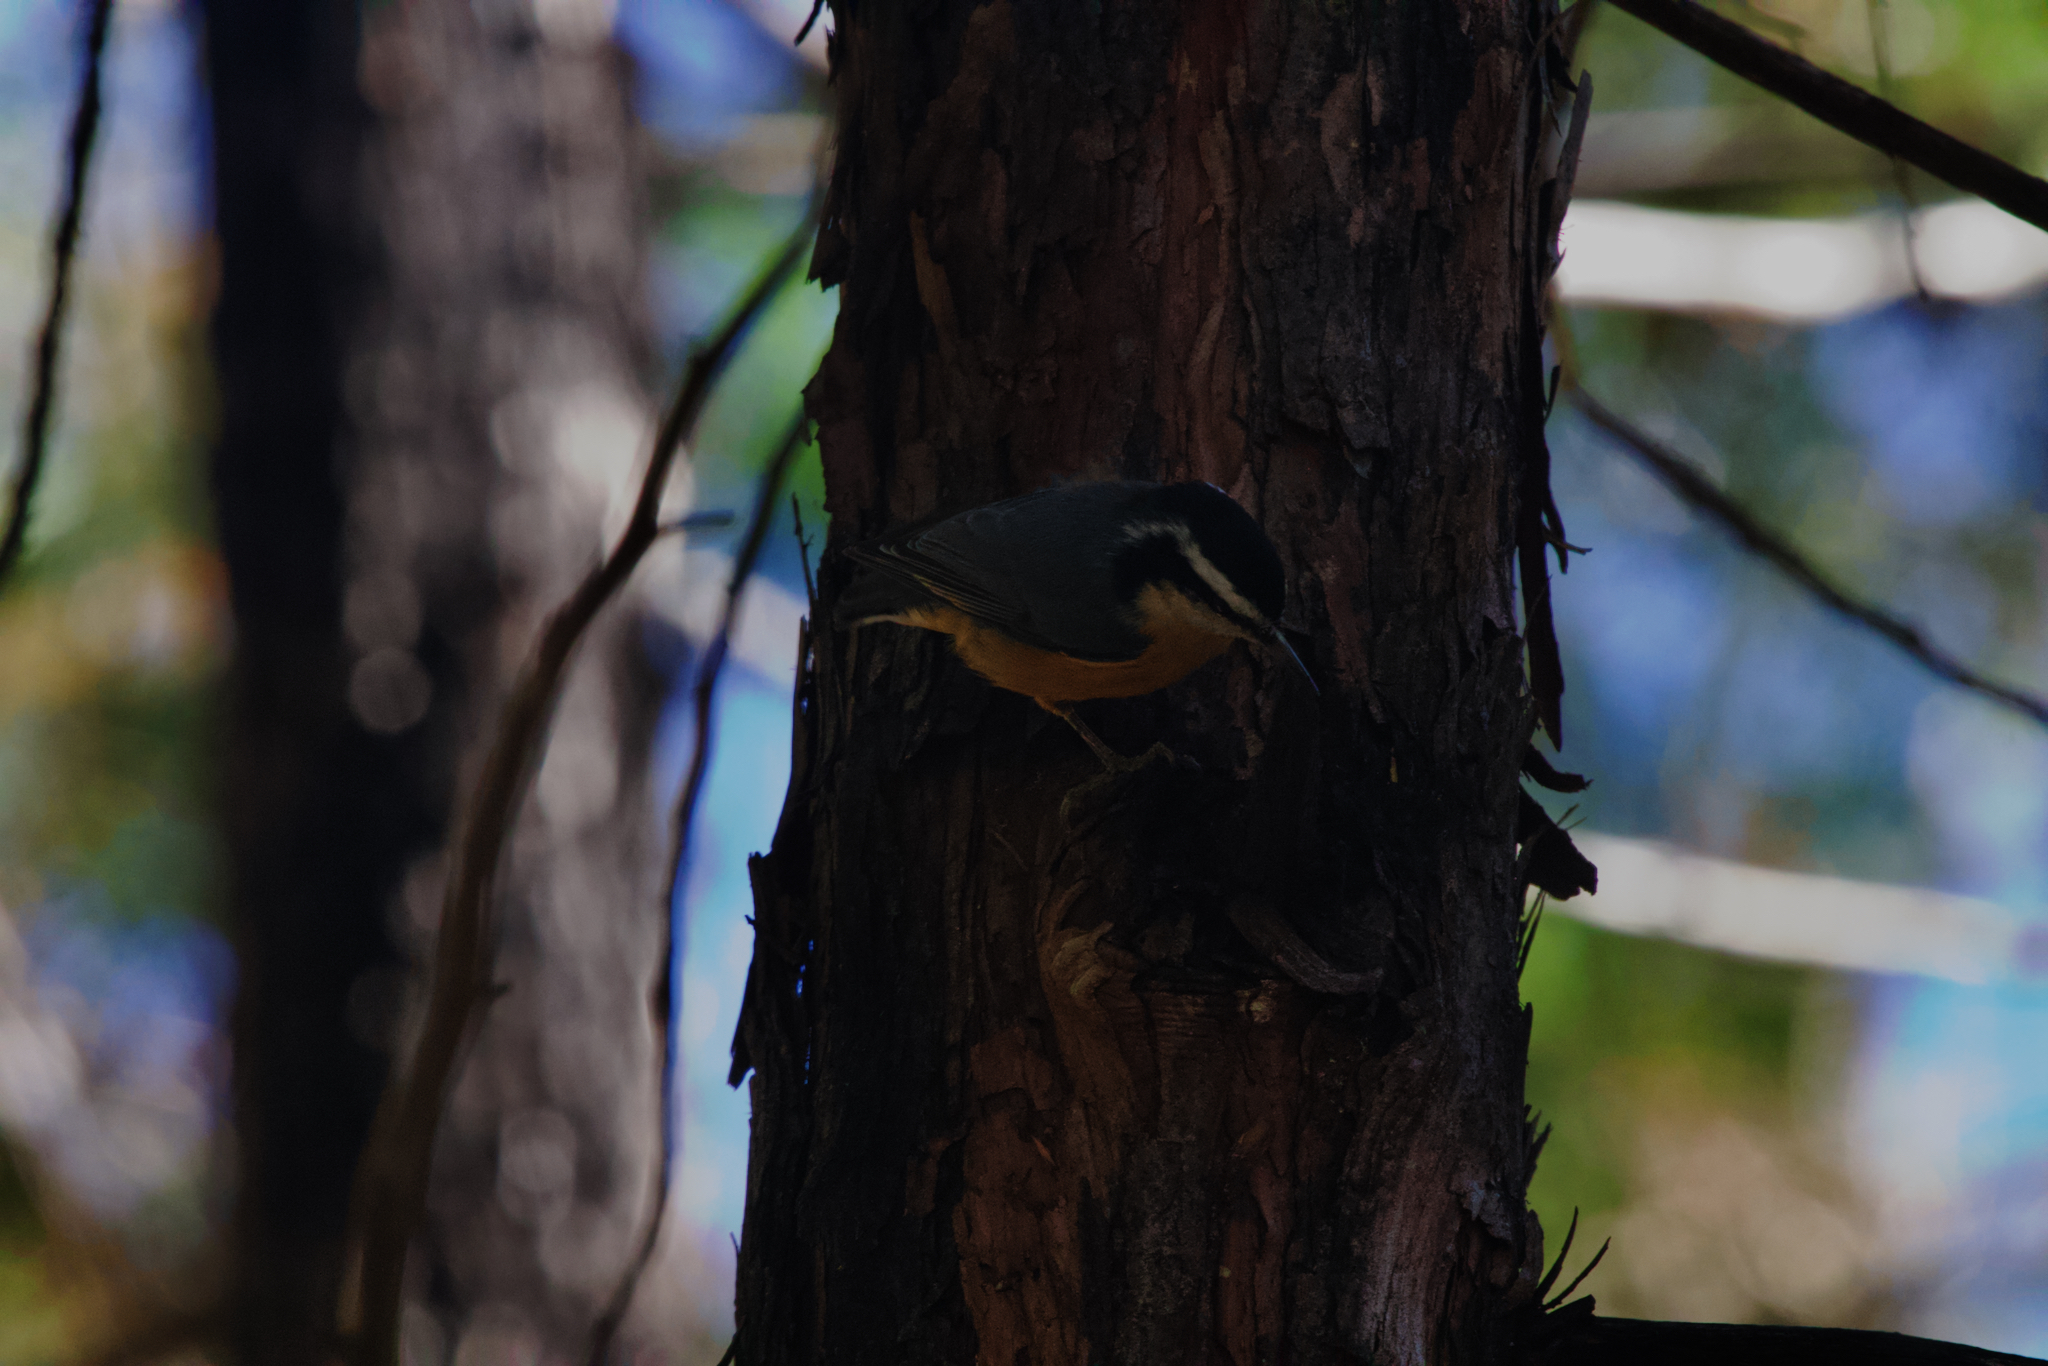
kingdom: Animalia
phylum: Chordata
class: Aves
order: Passeriformes
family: Sittidae
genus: Sitta
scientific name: Sitta canadensis
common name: Red-breasted nuthatch
